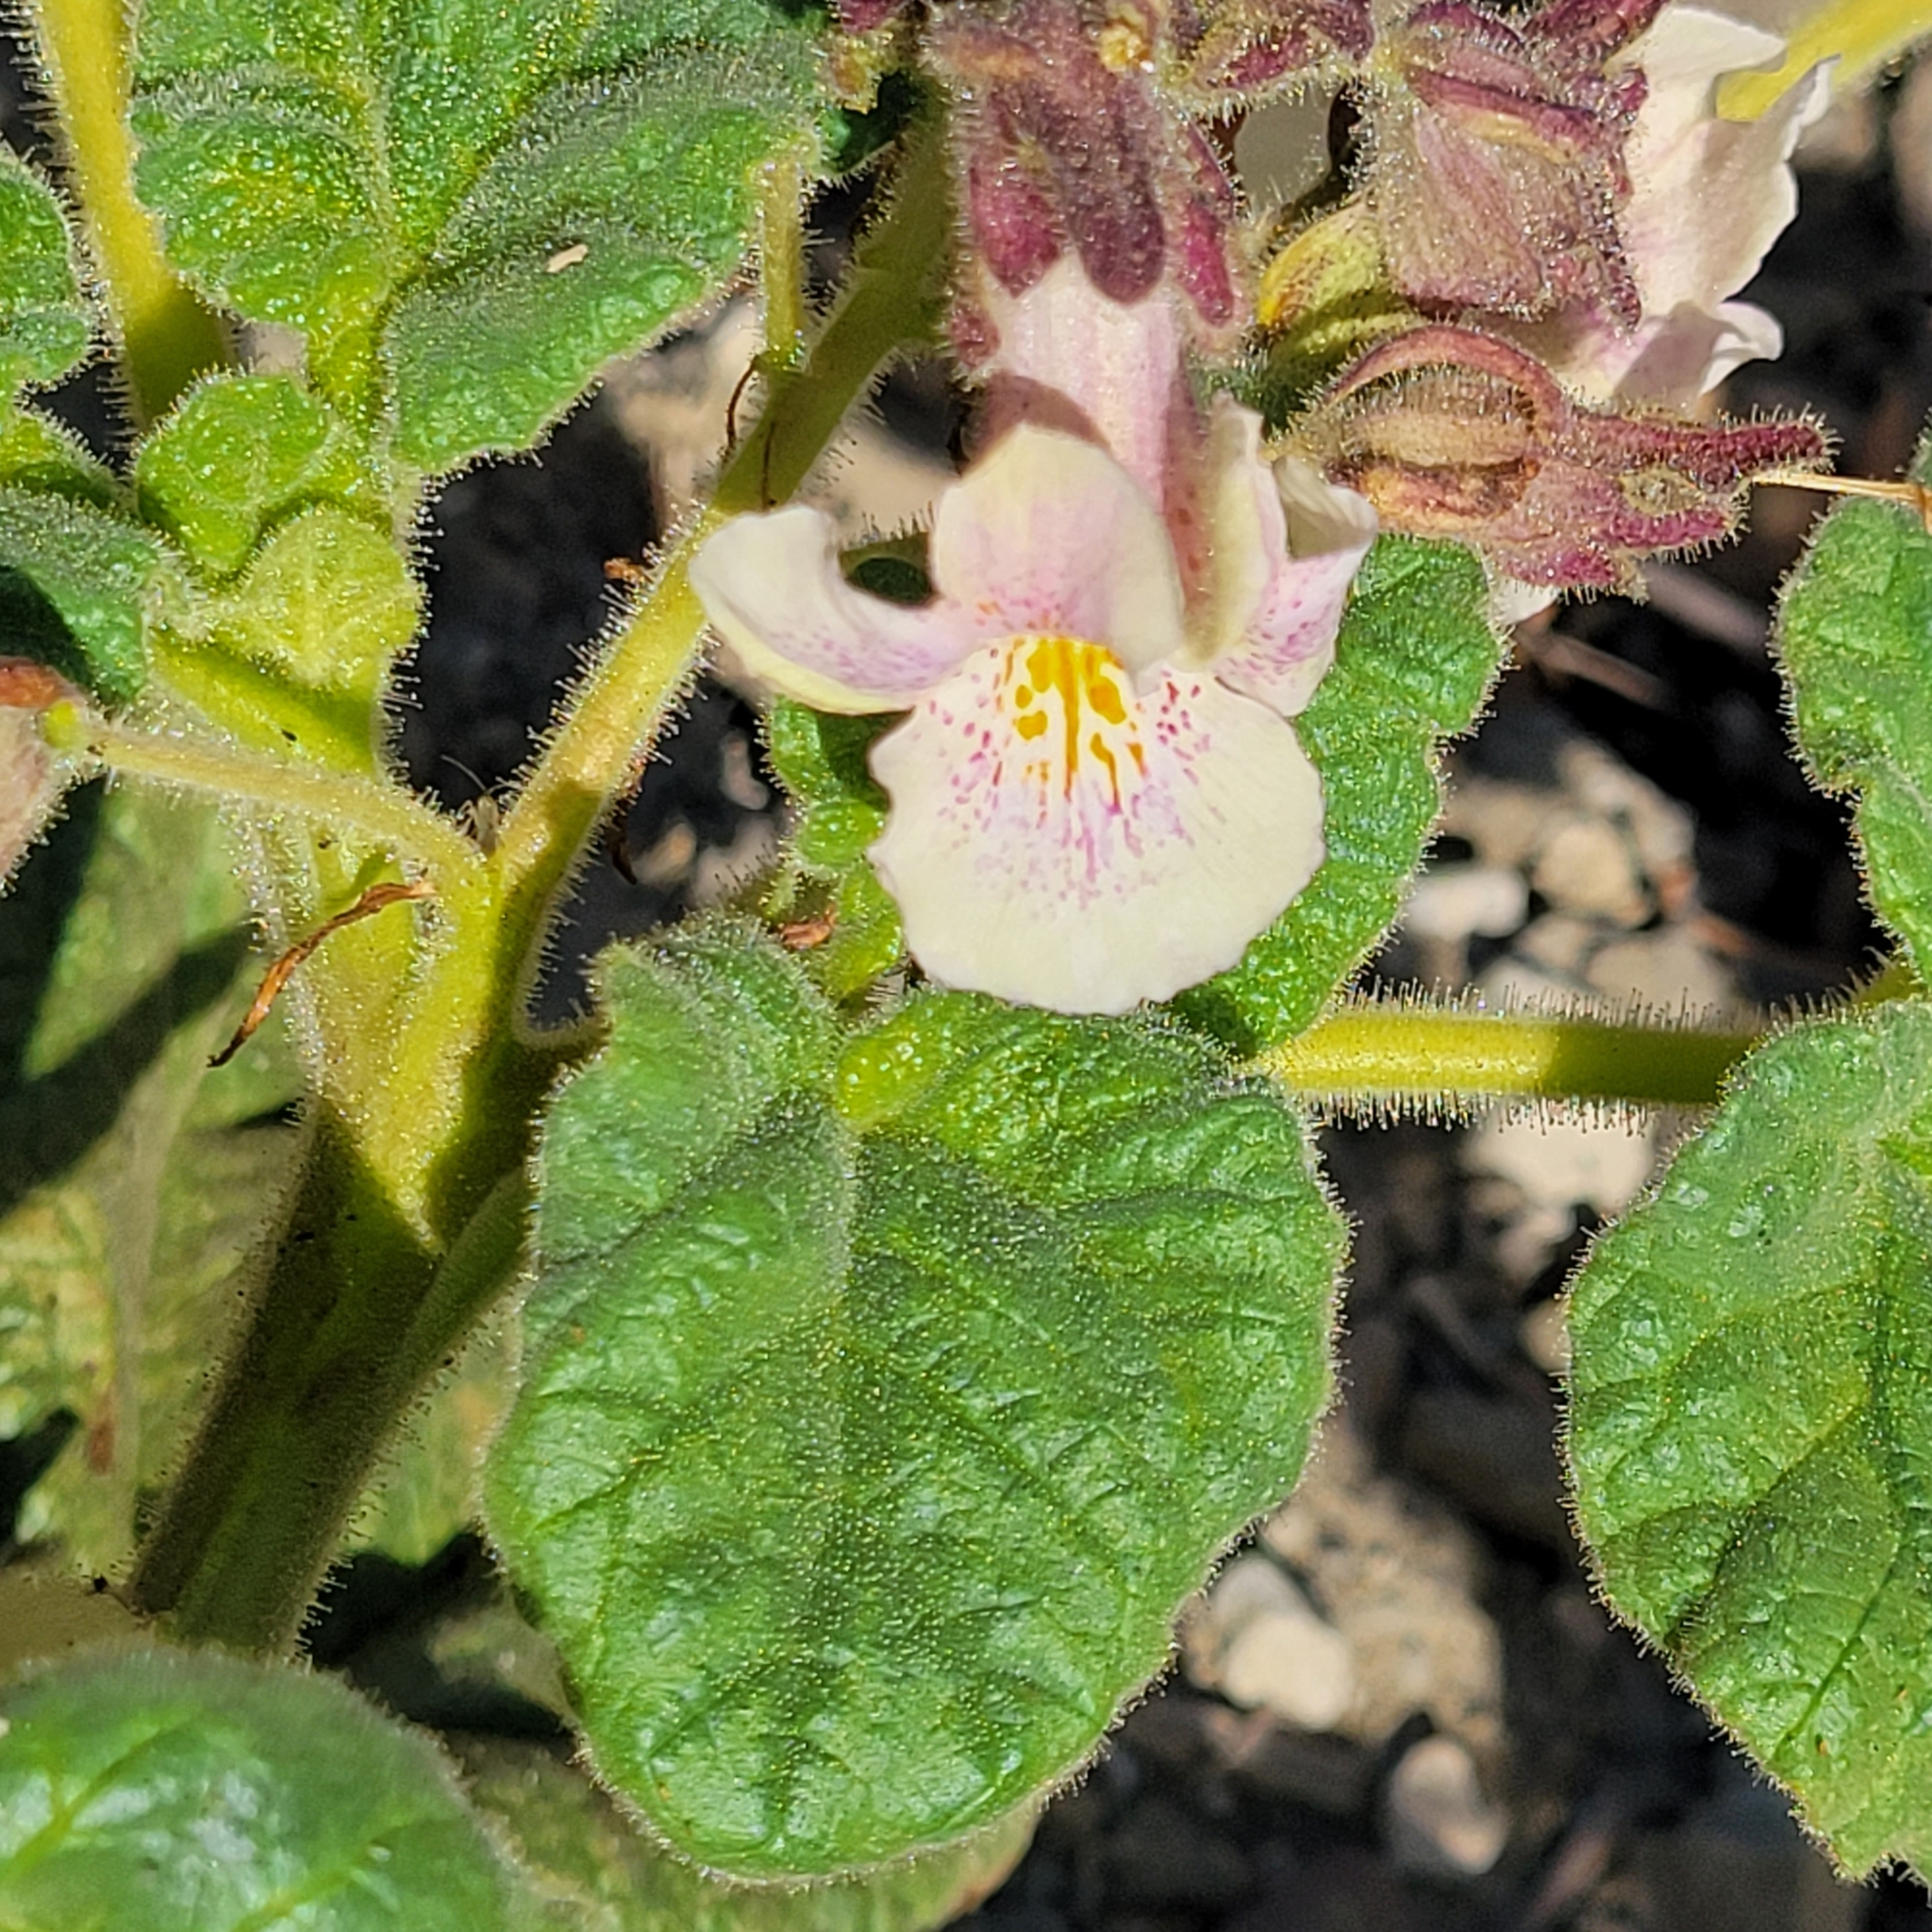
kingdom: Plantae
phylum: Tracheophyta
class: Magnoliopsida
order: Lamiales
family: Martyniaceae
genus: Proboscidea
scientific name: Proboscidea louisianica
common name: Elephant tusks
